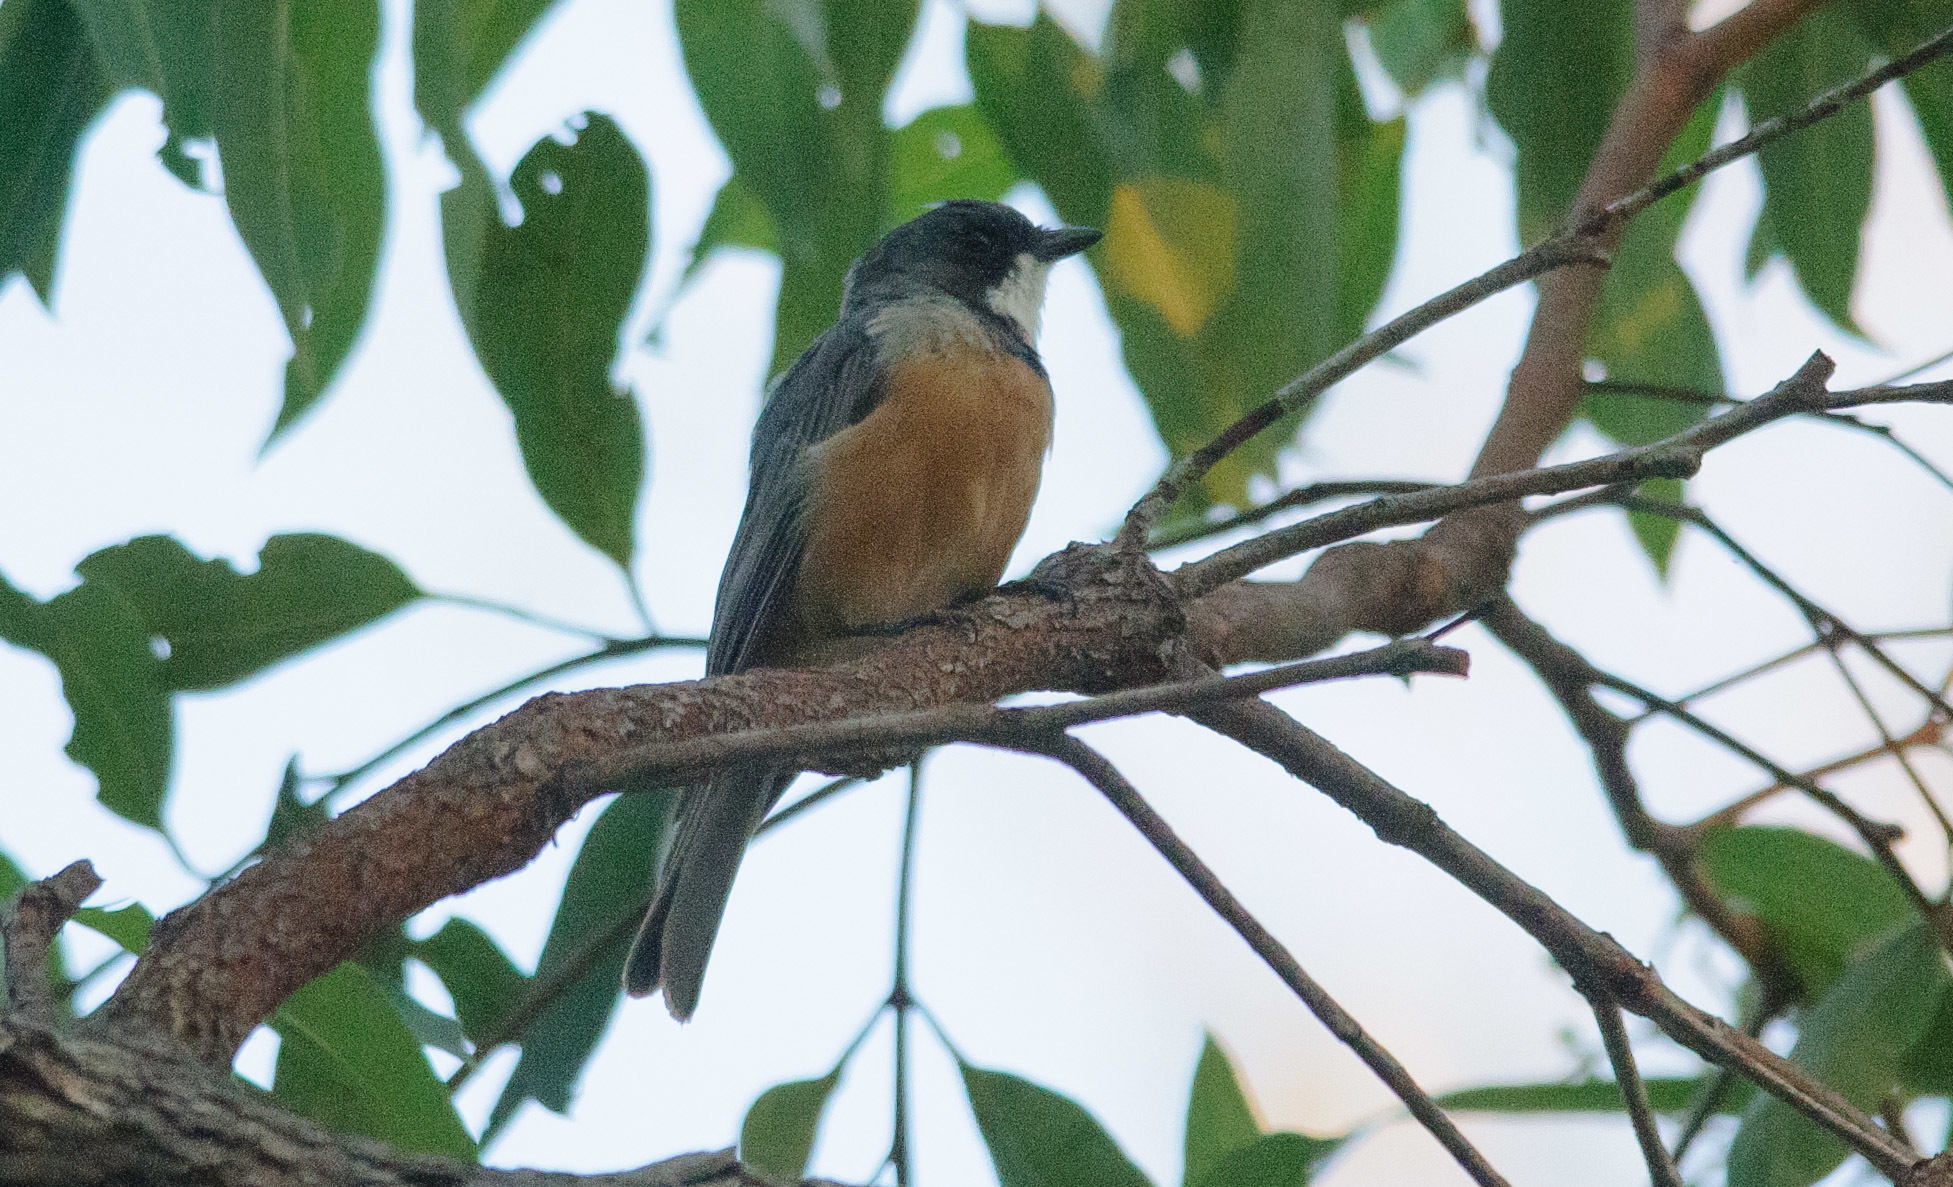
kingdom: Animalia
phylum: Chordata
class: Aves
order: Passeriformes
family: Pachycephalidae
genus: Pachycephala
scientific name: Pachycephala rufiventris
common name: Rufous whistler
